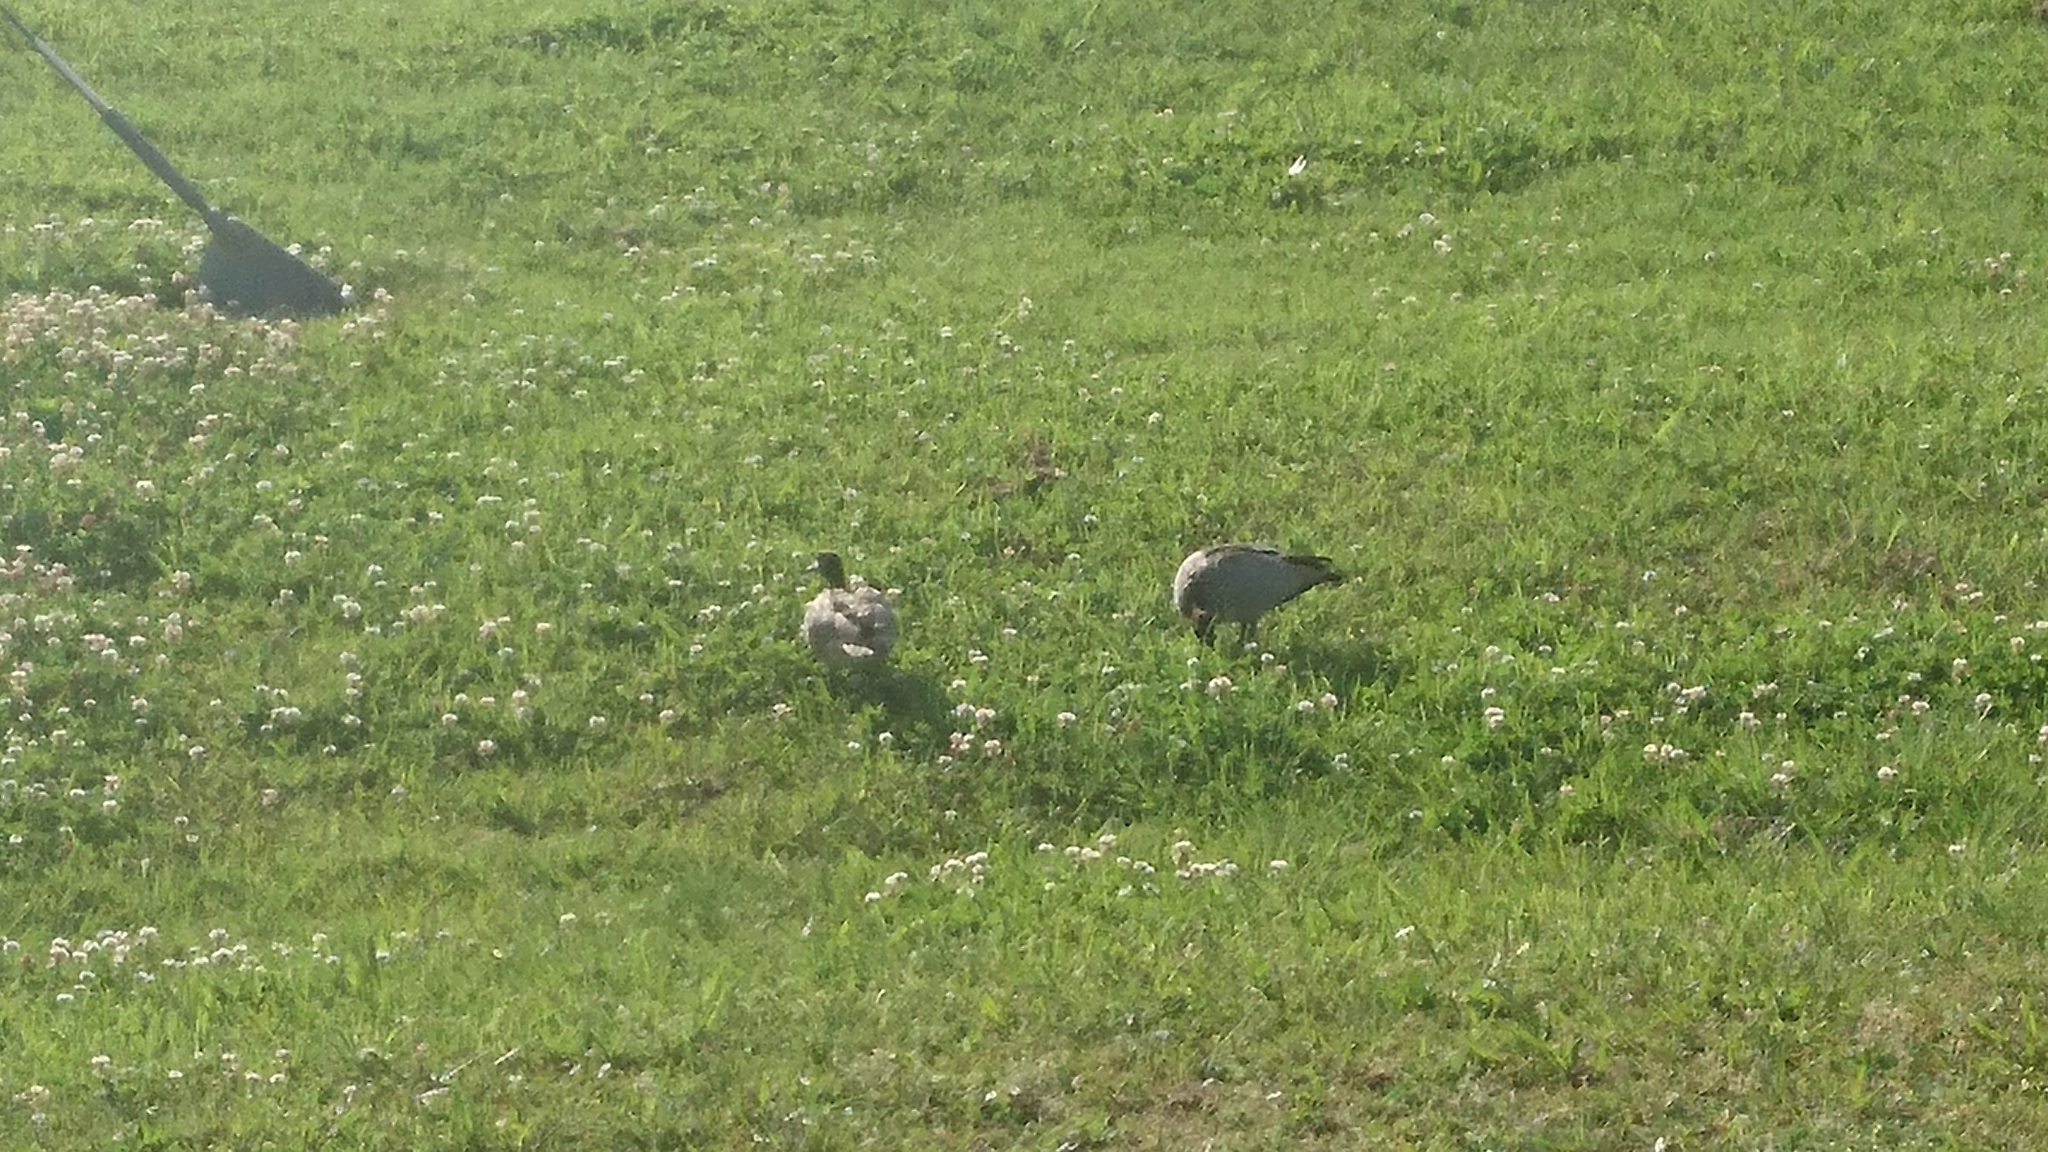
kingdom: Animalia
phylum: Chordata
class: Aves
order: Anseriformes
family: Anatidae
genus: Chenonetta
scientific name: Chenonetta jubata
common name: Maned duck
